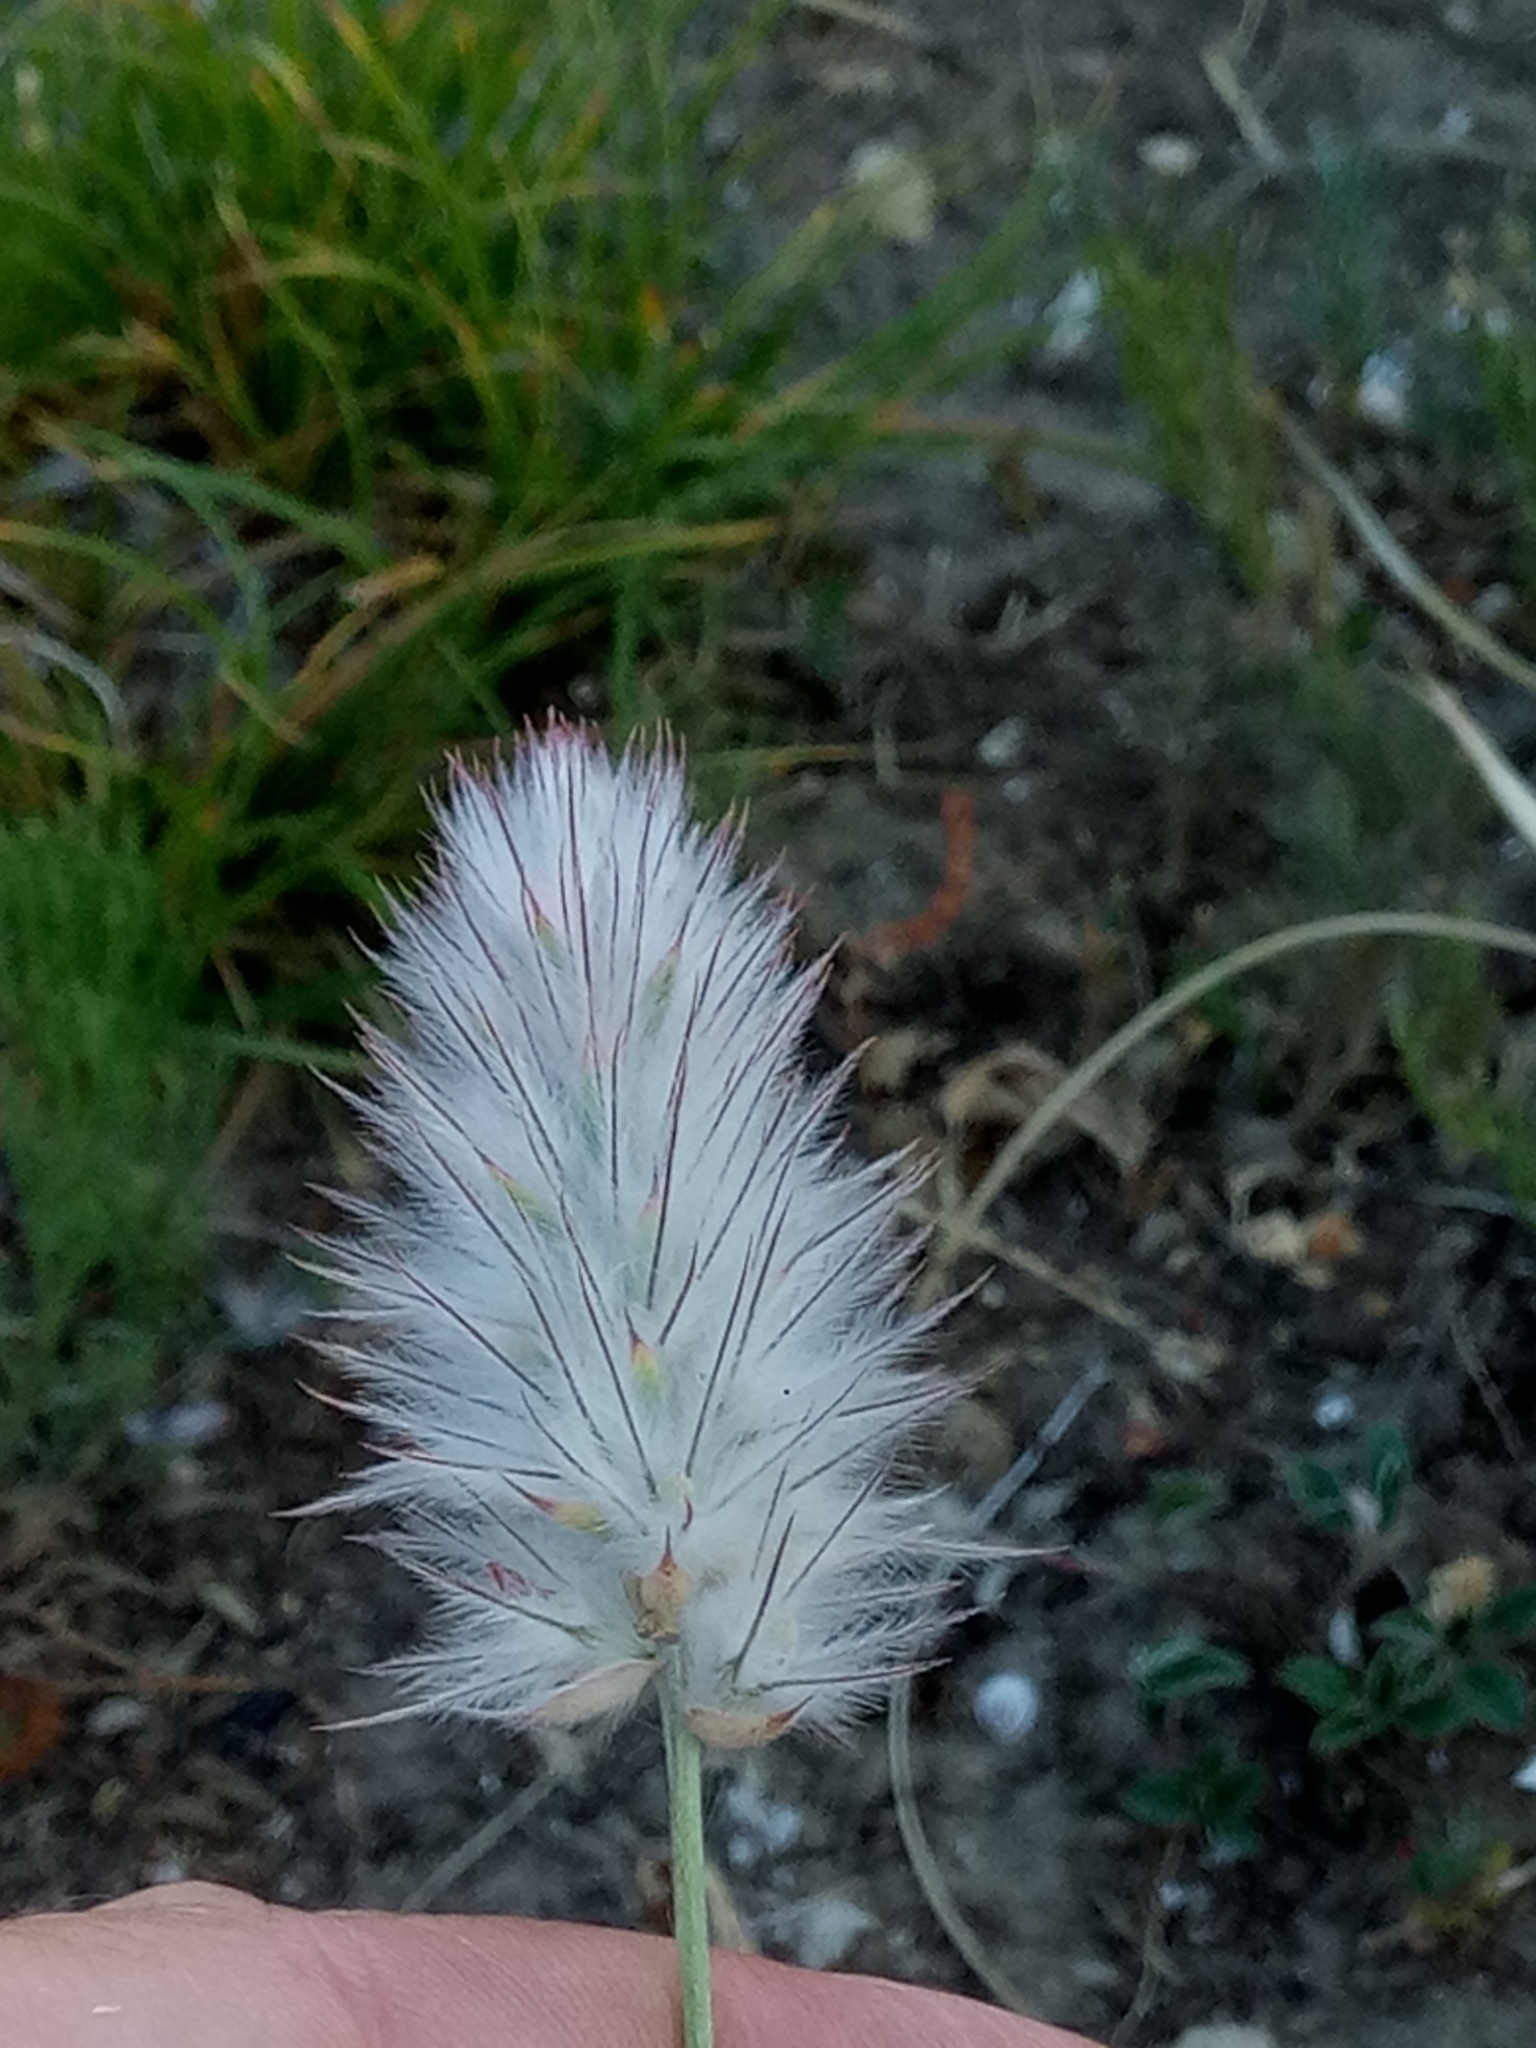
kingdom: Plantae
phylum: Tracheophyta
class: Magnoliopsida
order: Fabales
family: Fabaceae
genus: Ebenus
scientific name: Ebenus pinnata
